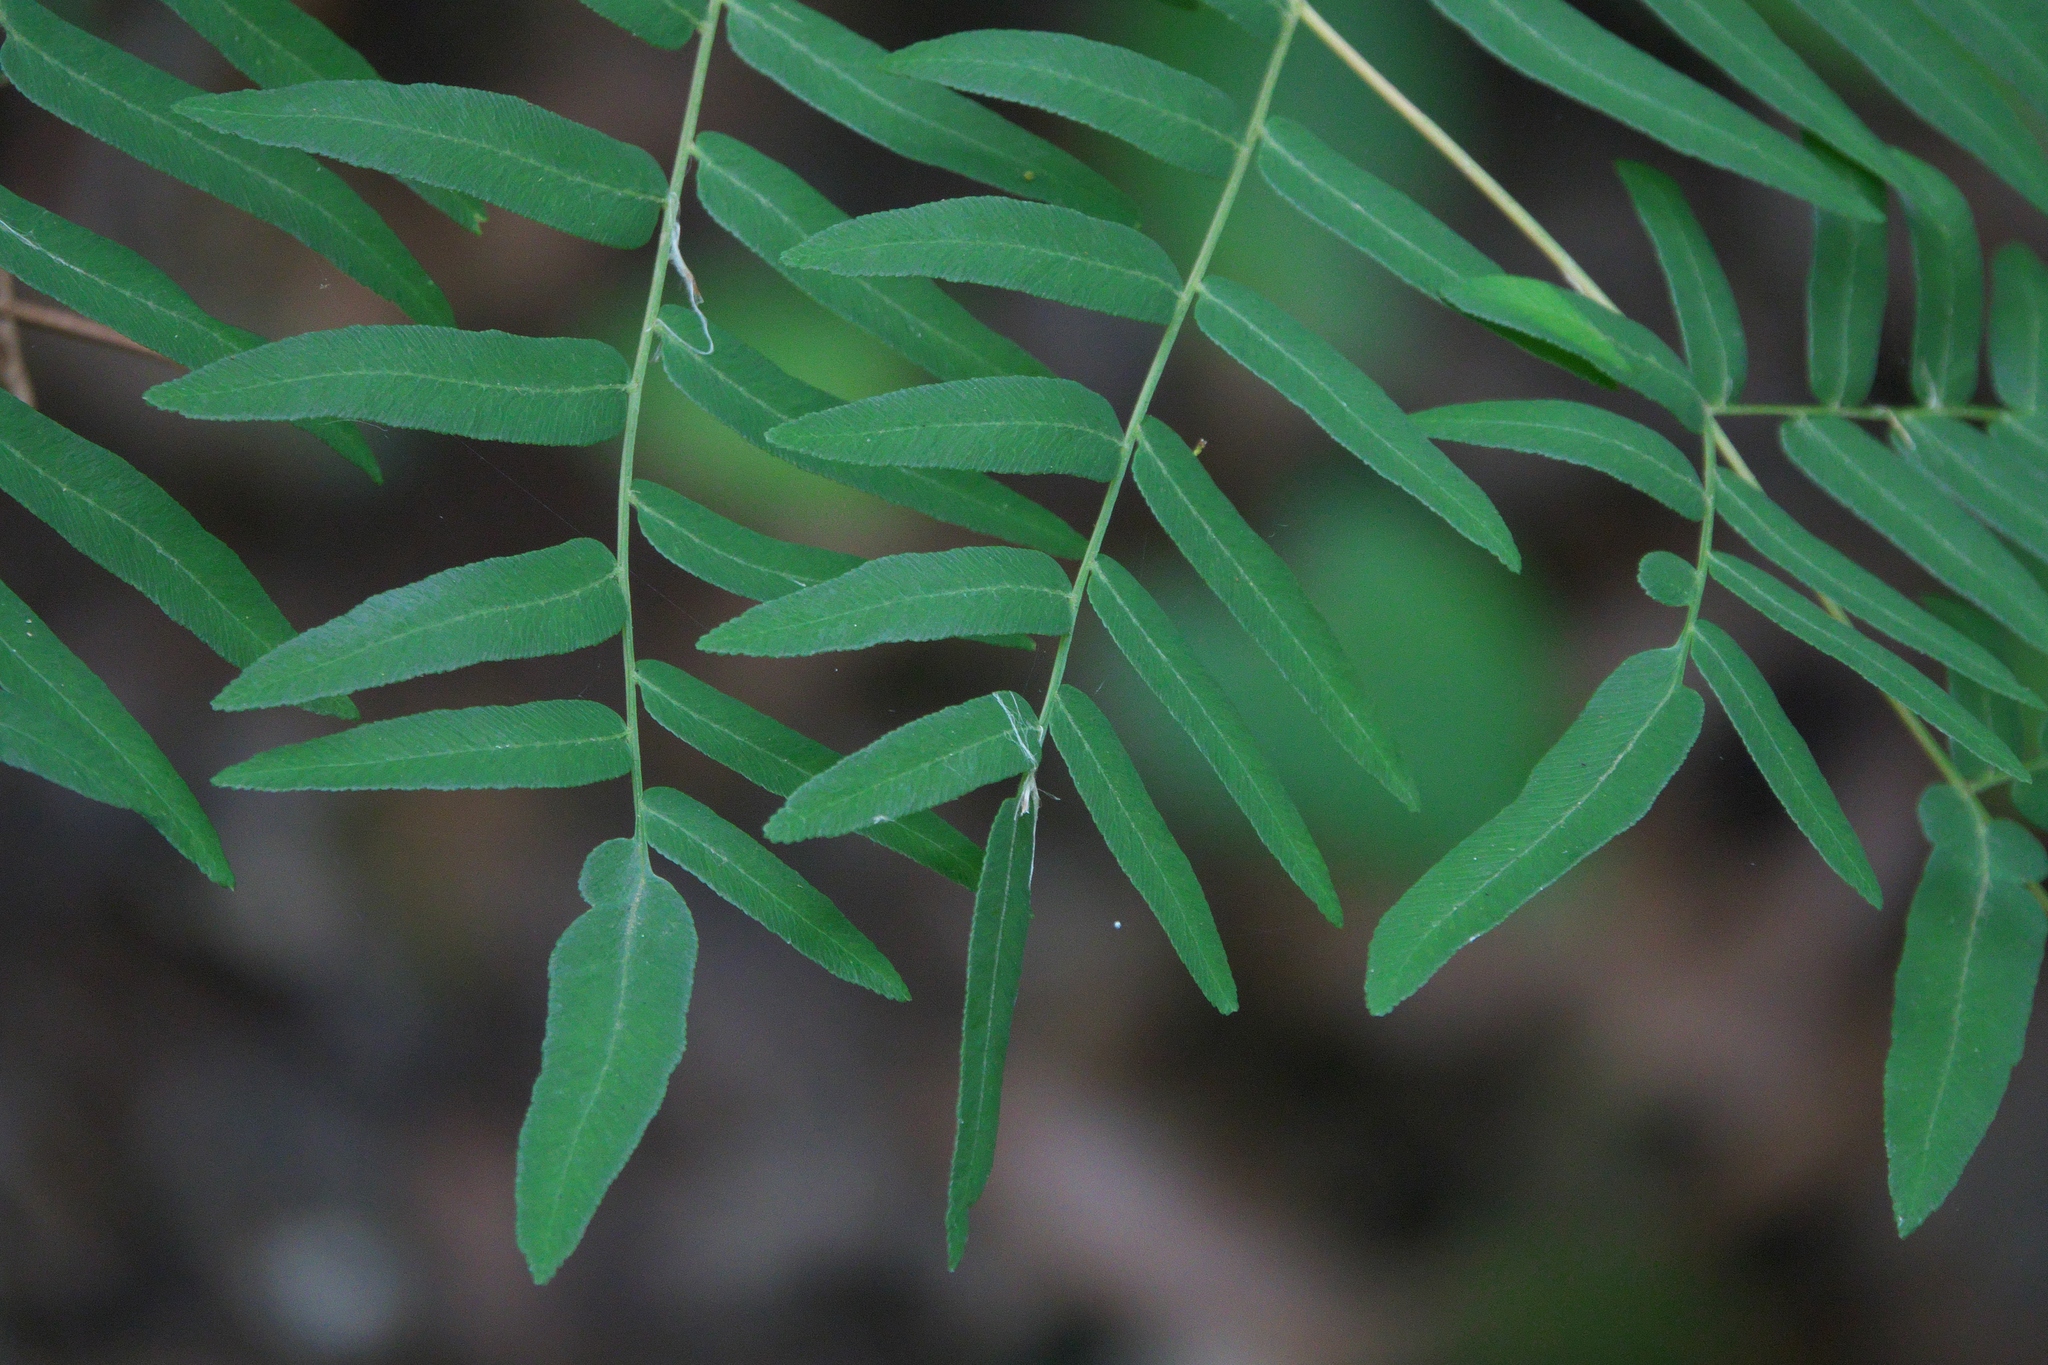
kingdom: Plantae
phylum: Tracheophyta
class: Polypodiopsida
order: Osmundales
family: Osmundaceae
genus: Osmunda
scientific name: Osmunda spectabilis
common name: American royal fern
